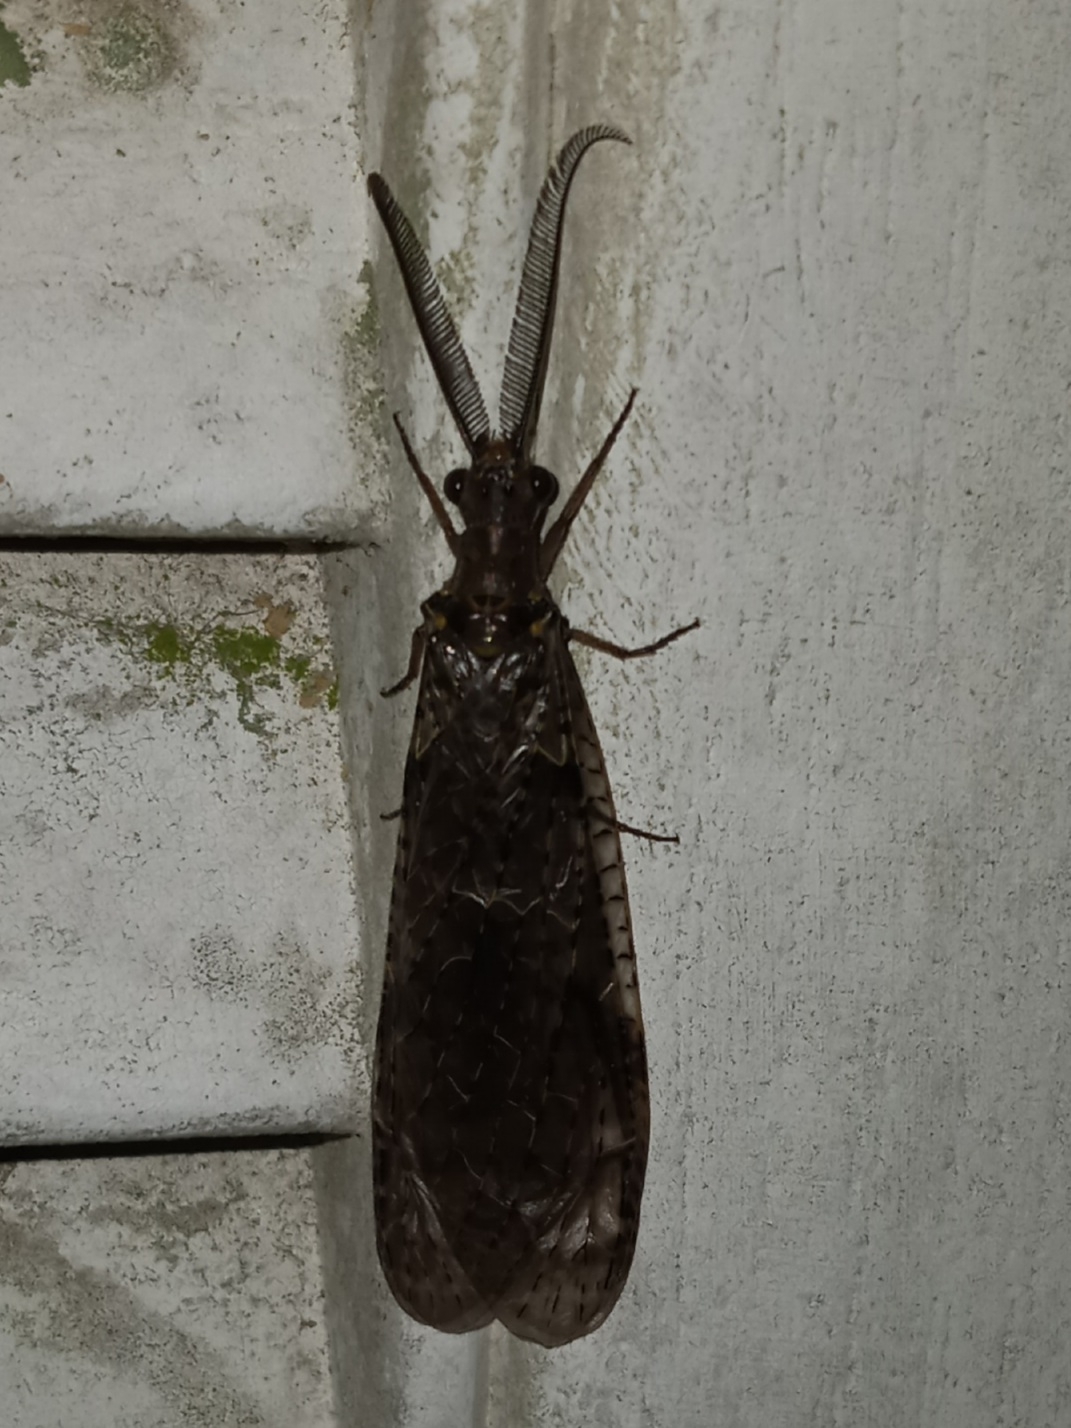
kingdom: Animalia
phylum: Arthropoda
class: Insecta
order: Megaloptera
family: Corydalidae
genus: Chauliodes
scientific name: Chauliodes rastricornis
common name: Spring fishfly
